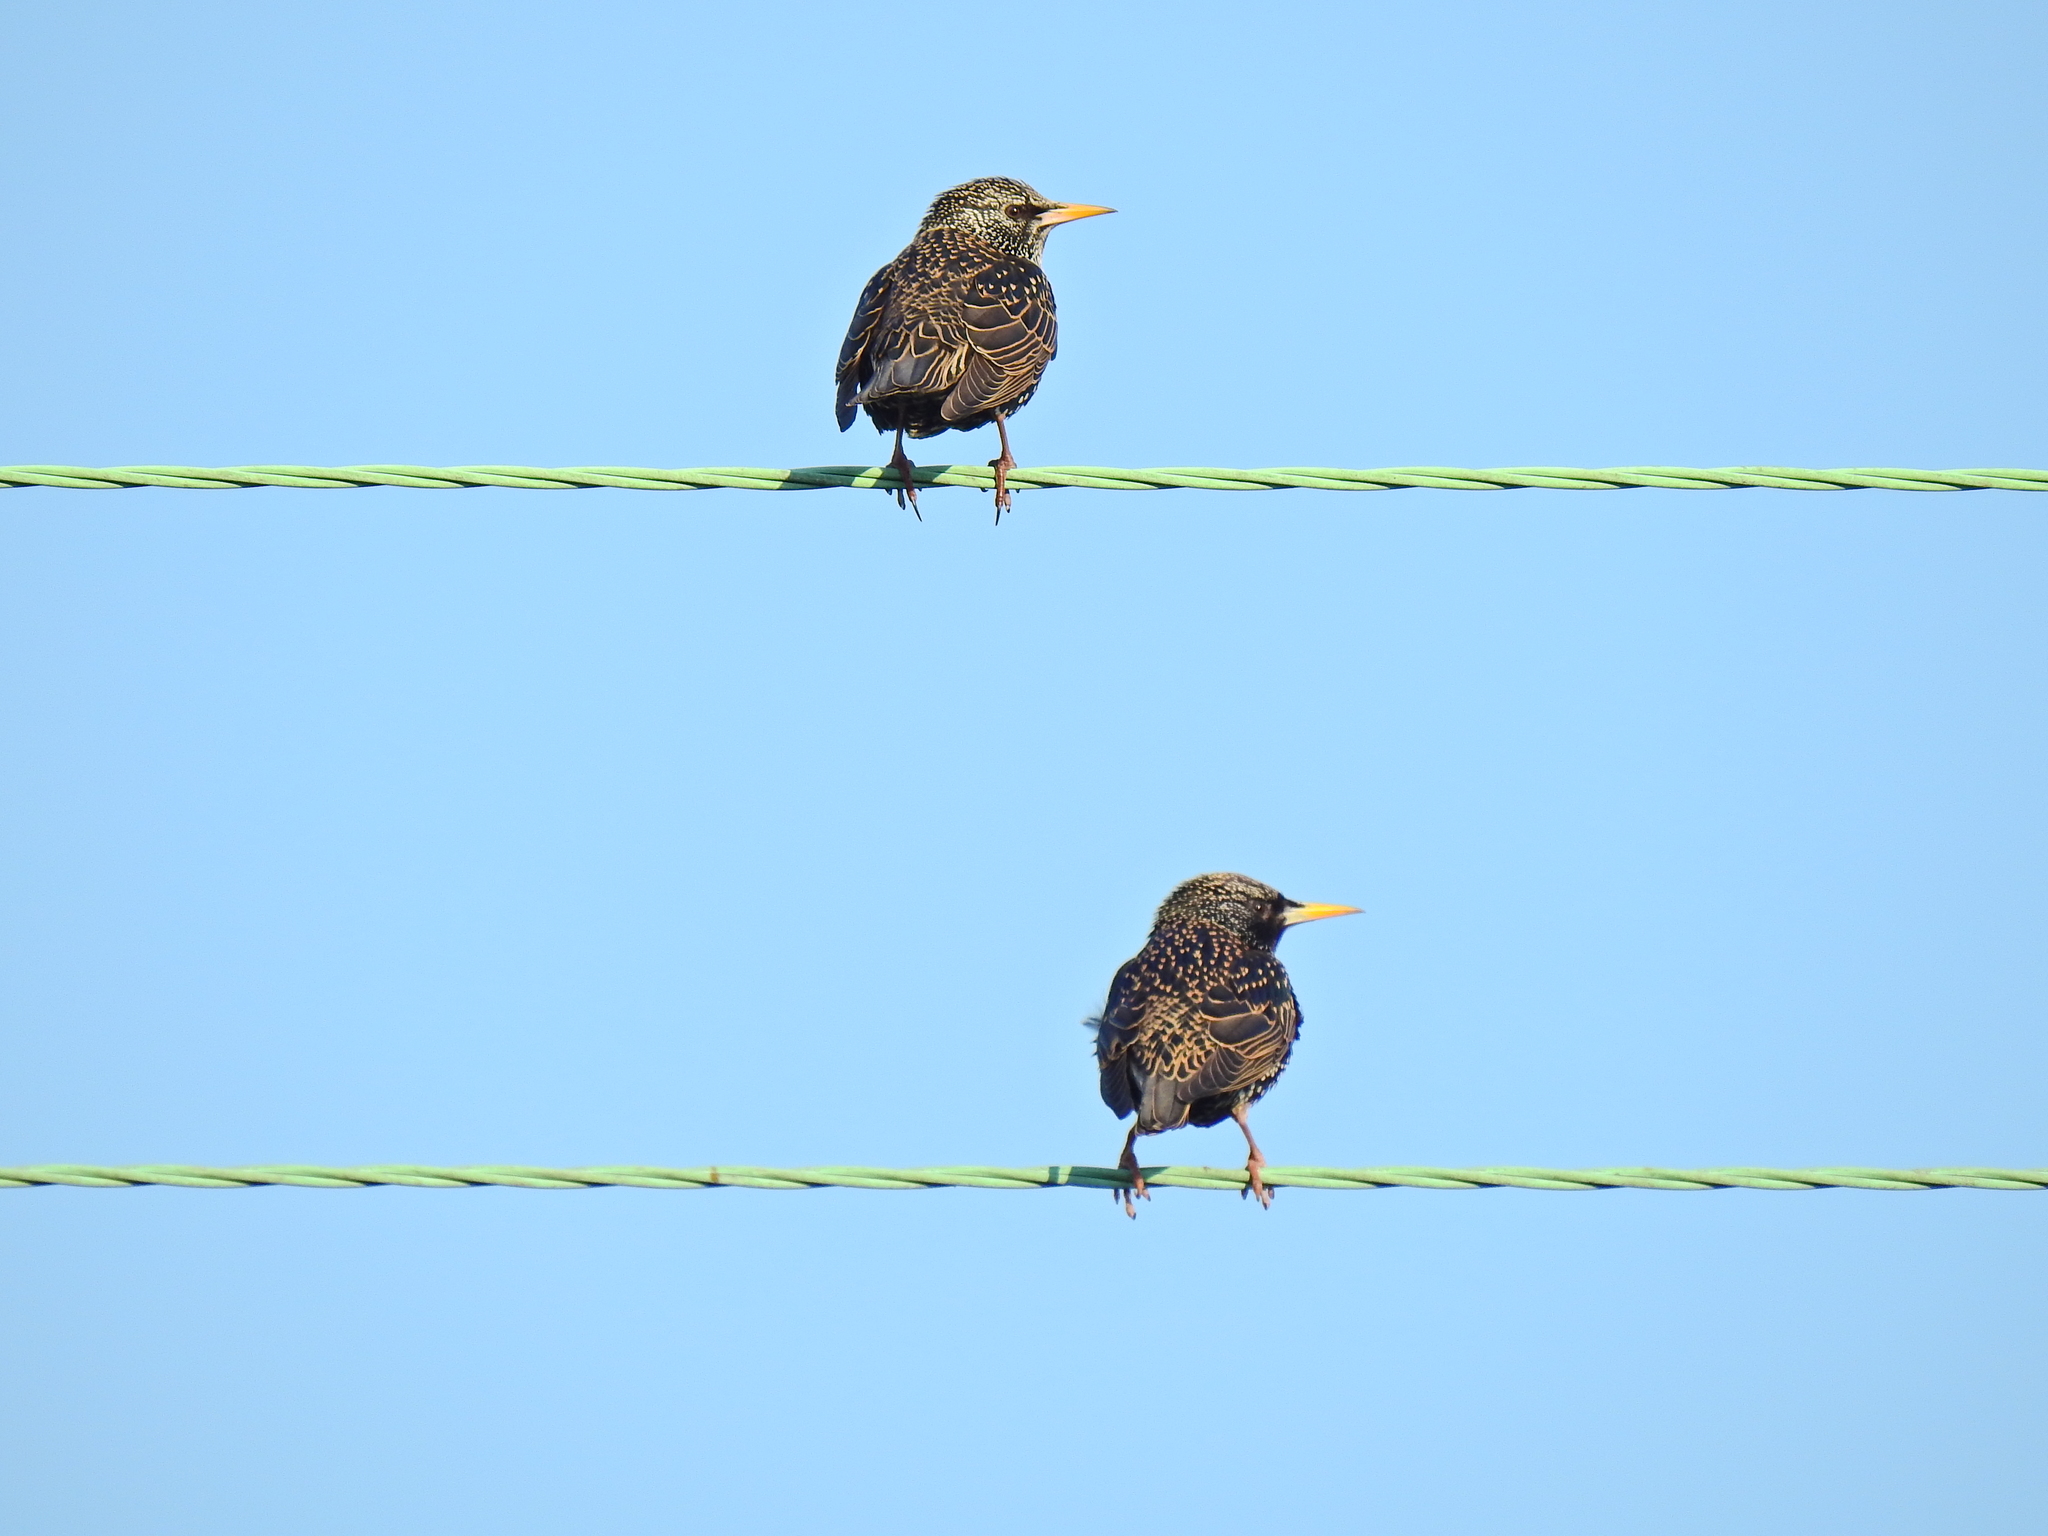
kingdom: Animalia
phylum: Chordata
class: Aves
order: Passeriformes
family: Sturnidae
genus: Sturnus
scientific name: Sturnus vulgaris
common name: Common starling
